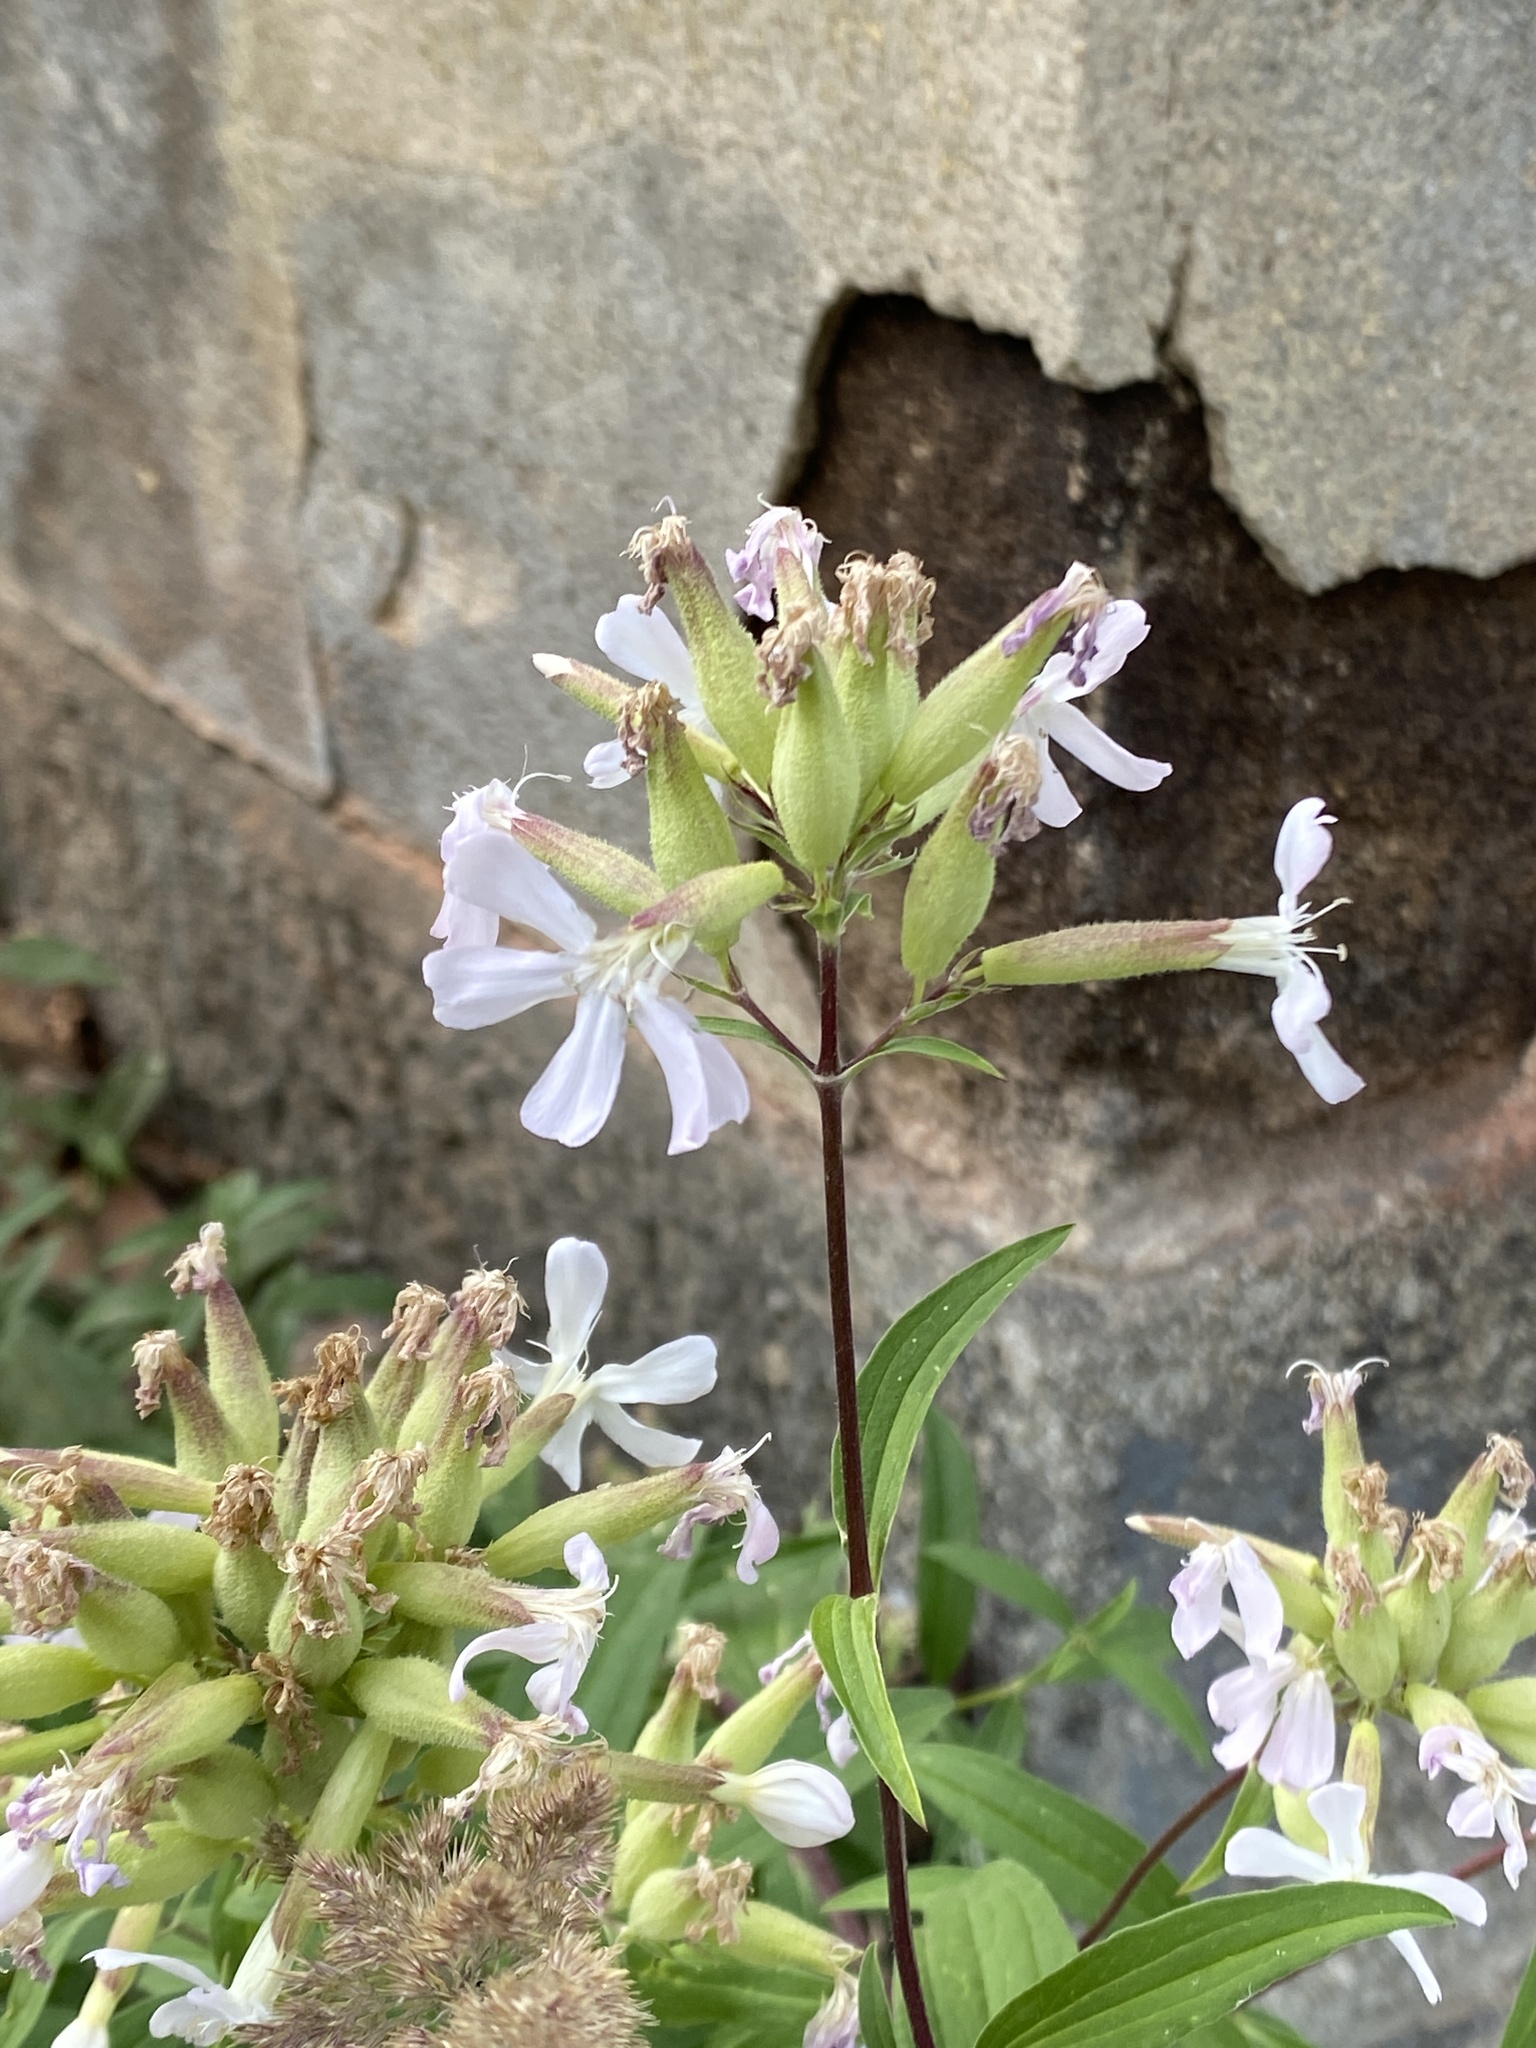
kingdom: Plantae
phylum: Tracheophyta
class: Magnoliopsida
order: Caryophyllales
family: Caryophyllaceae
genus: Saponaria
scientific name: Saponaria officinalis
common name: Soapwort
